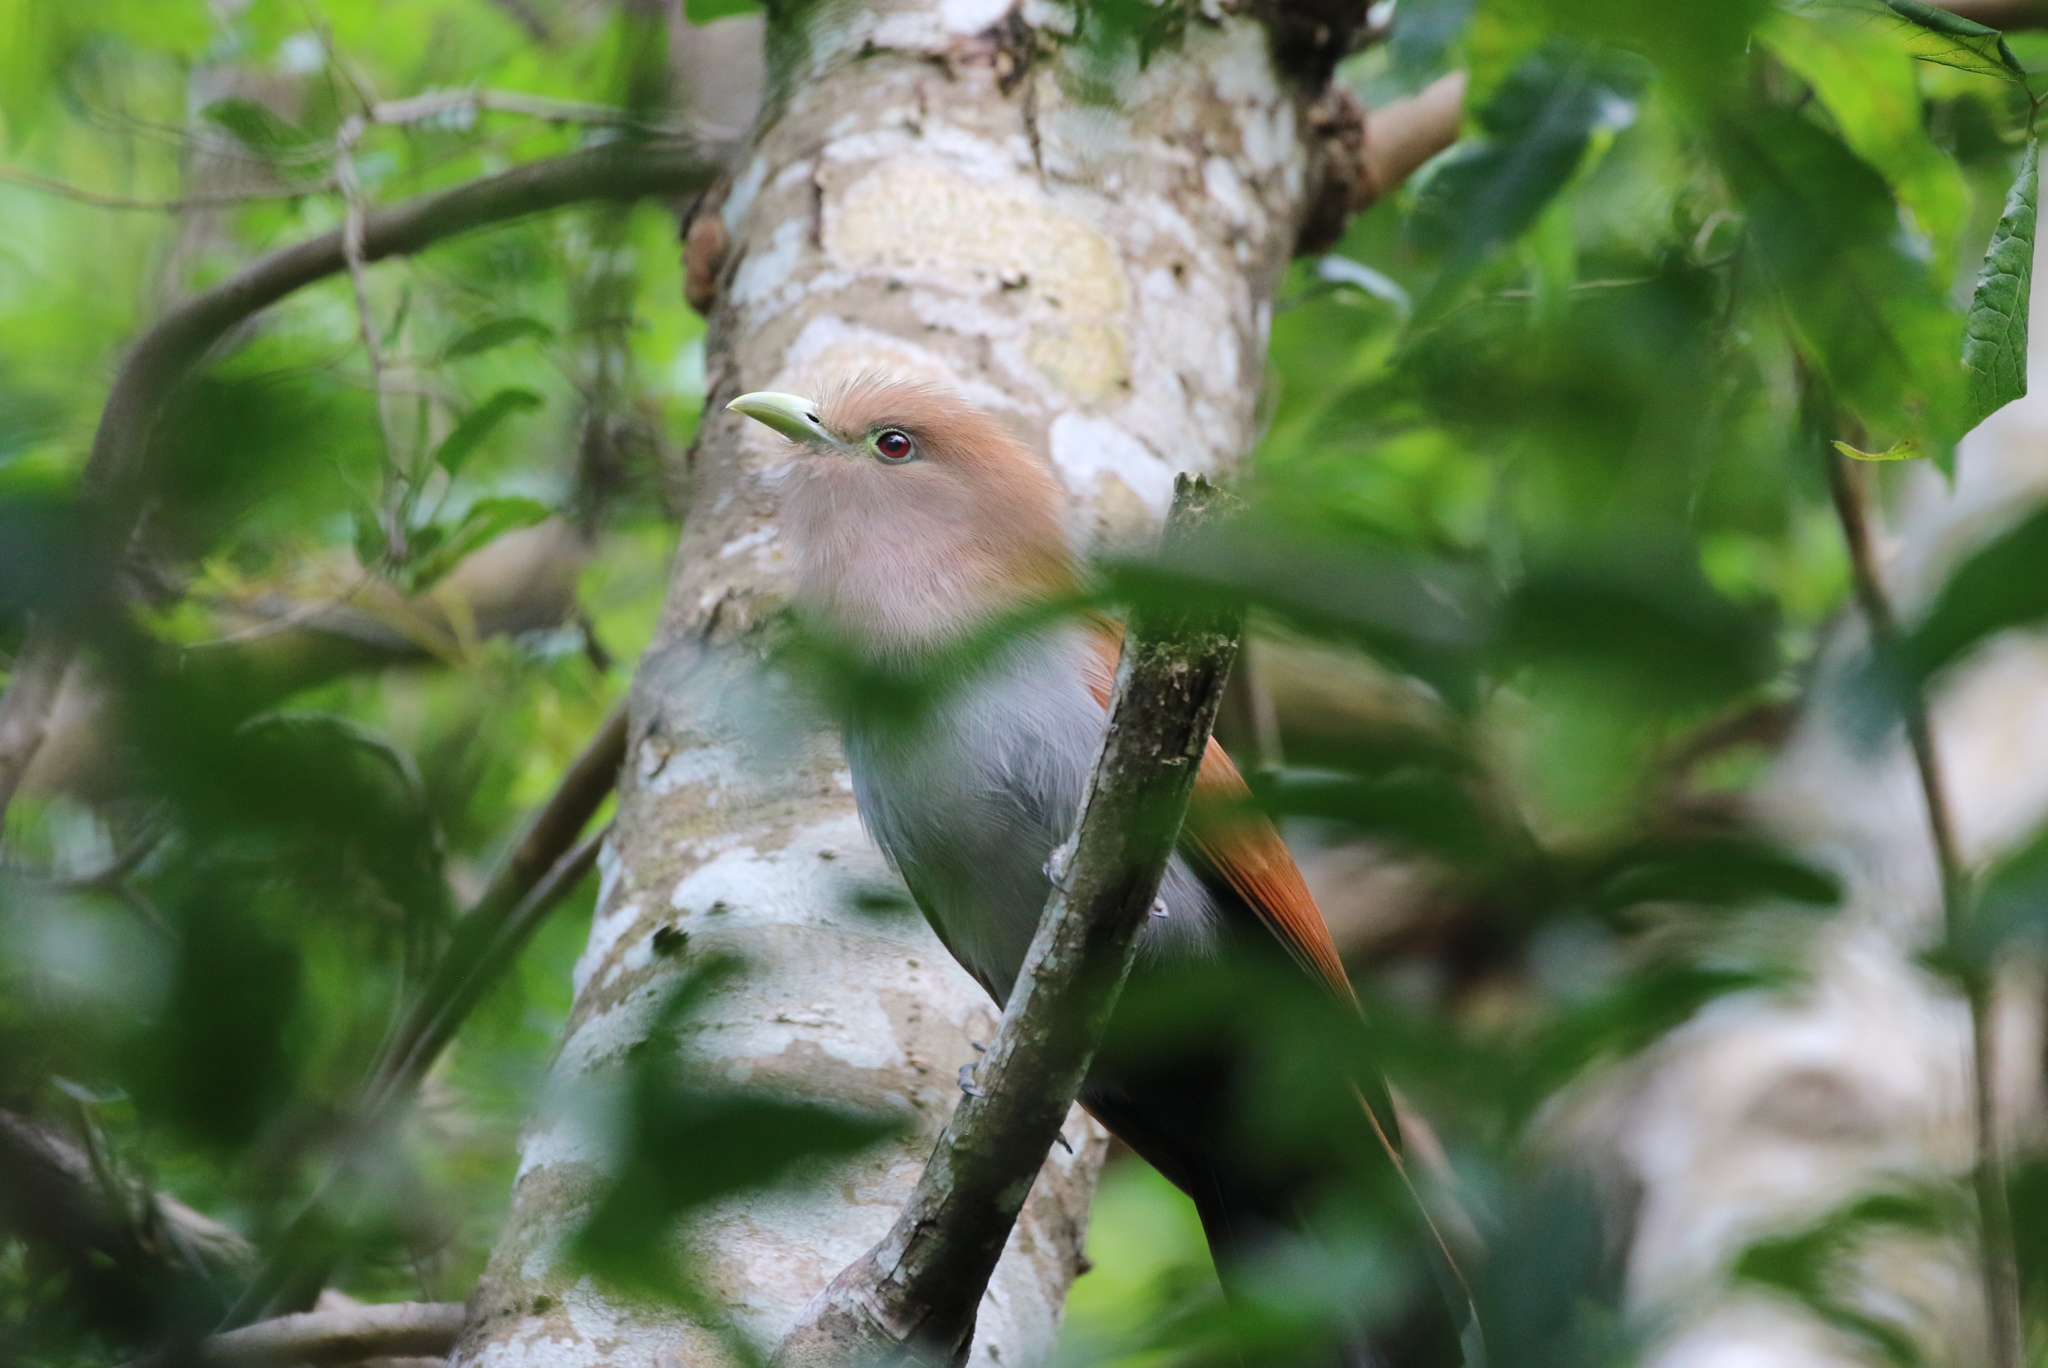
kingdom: Animalia
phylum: Chordata
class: Aves
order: Cuculiformes
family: Cuculidae
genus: Piaya
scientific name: Piaya cayana
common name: Squirrel cuckoo
